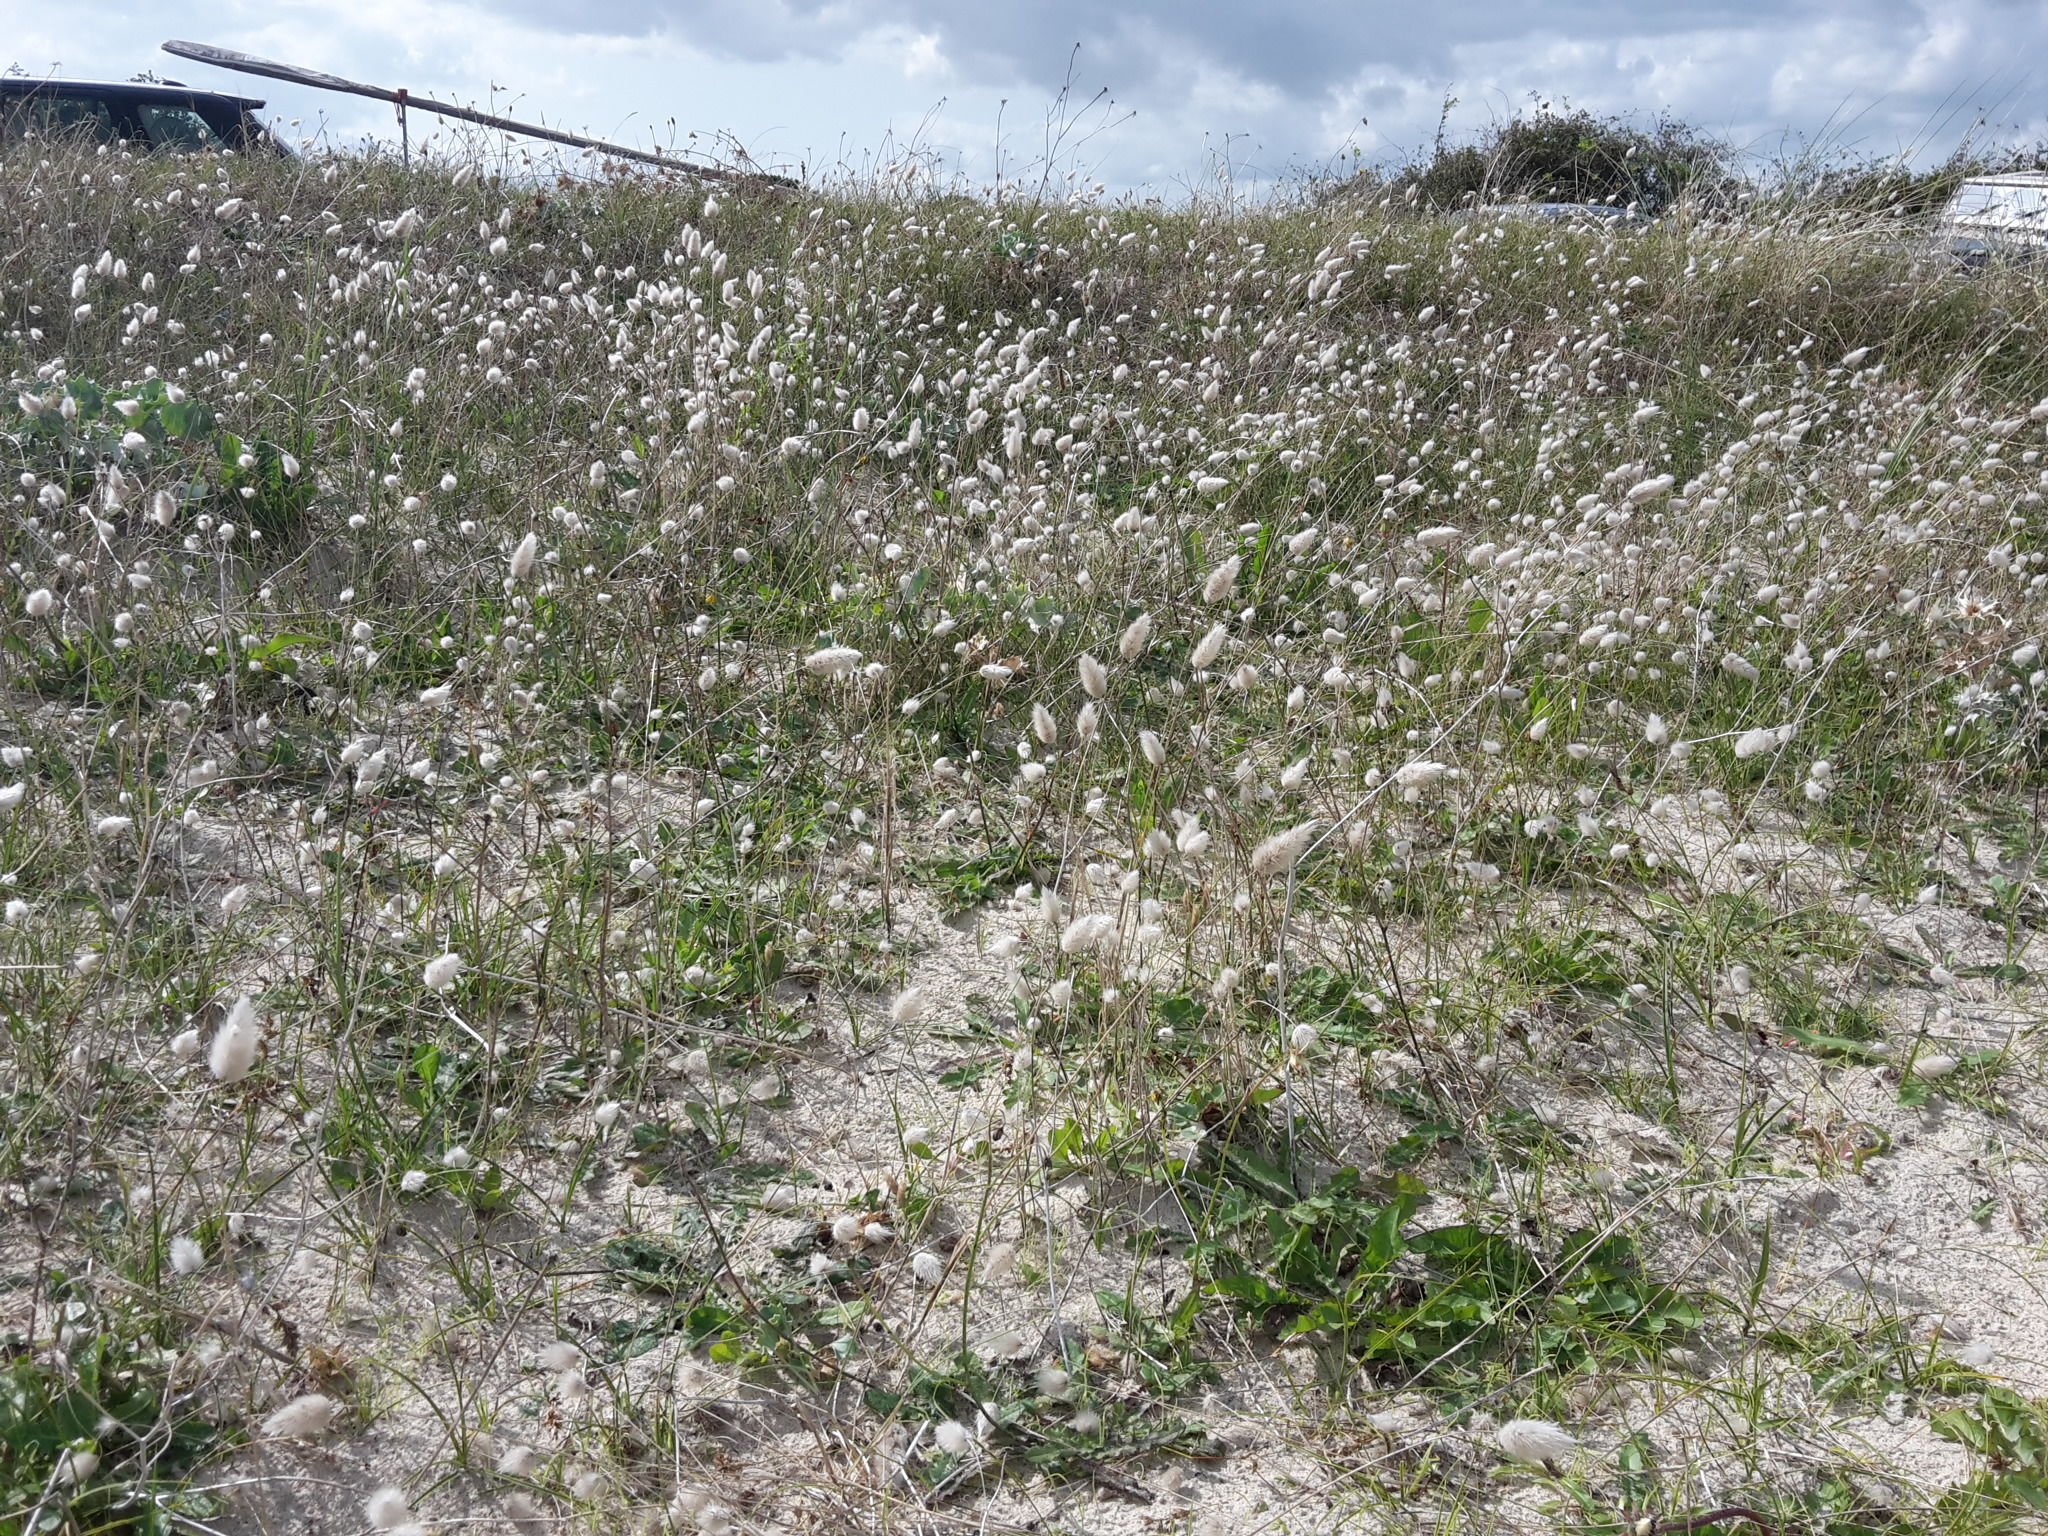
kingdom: Plantae
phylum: Tracheophyta
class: Liliopsida
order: Poales
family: Poaceae
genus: Lagurus
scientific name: Lagurus ovatus
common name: Hare's-tail
